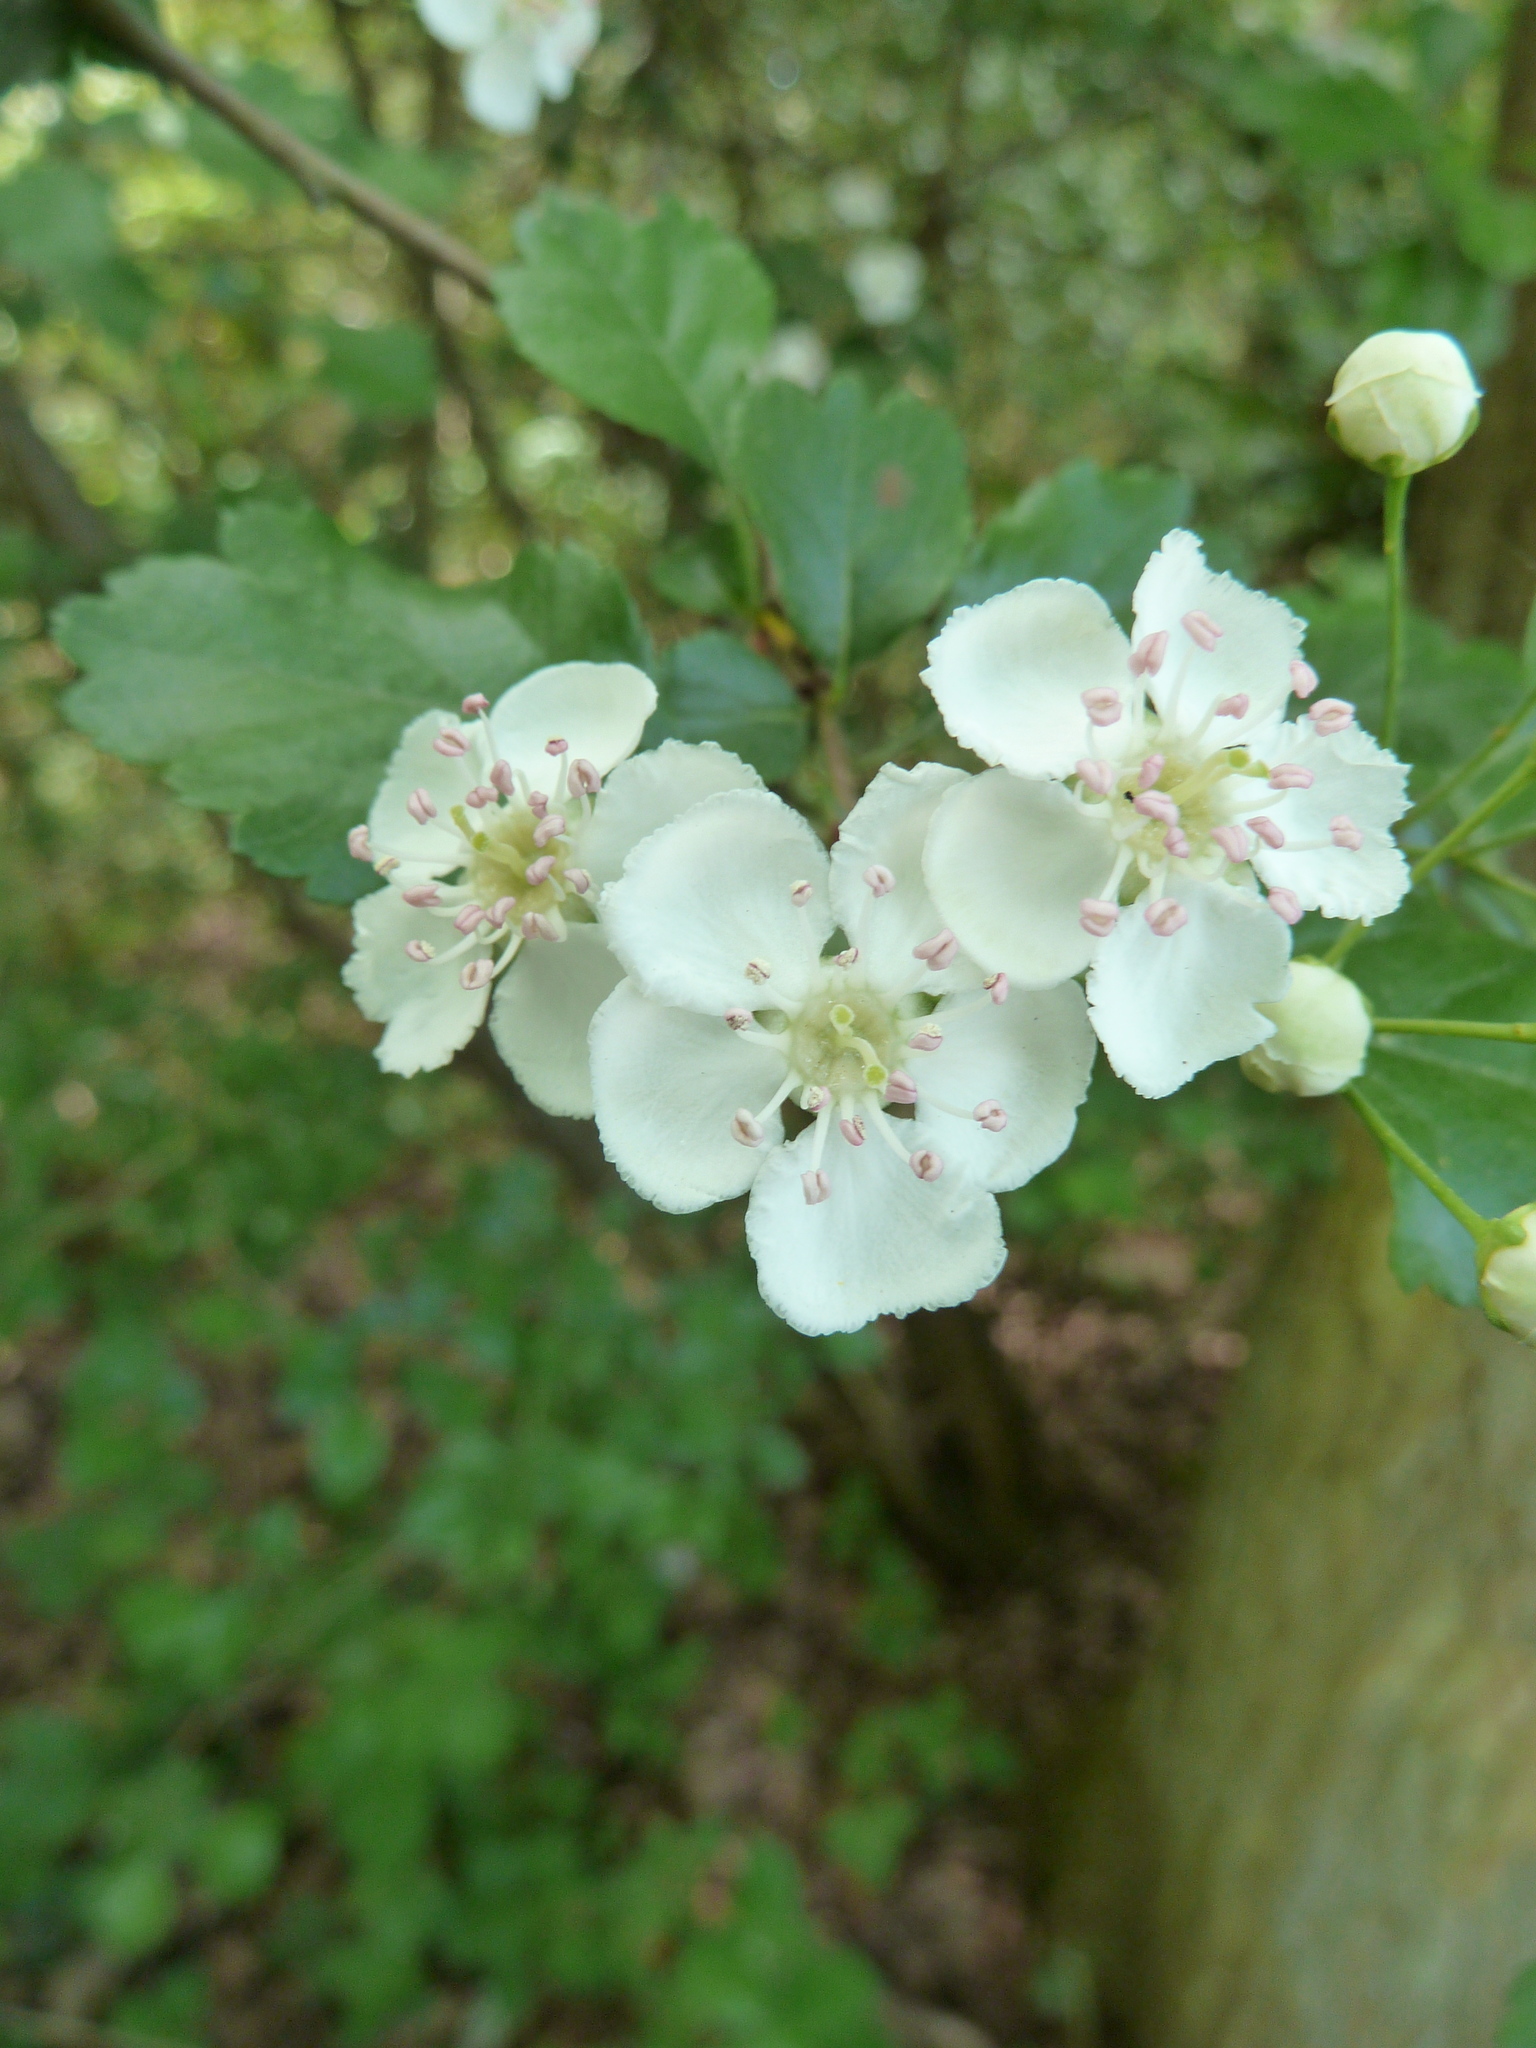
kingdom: Plantae
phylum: Tracheophyta
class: Magnoliopsida
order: Rosales
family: Rosaceae
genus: Crataegus
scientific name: Crataegus laevigata
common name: Midland hawthorn
